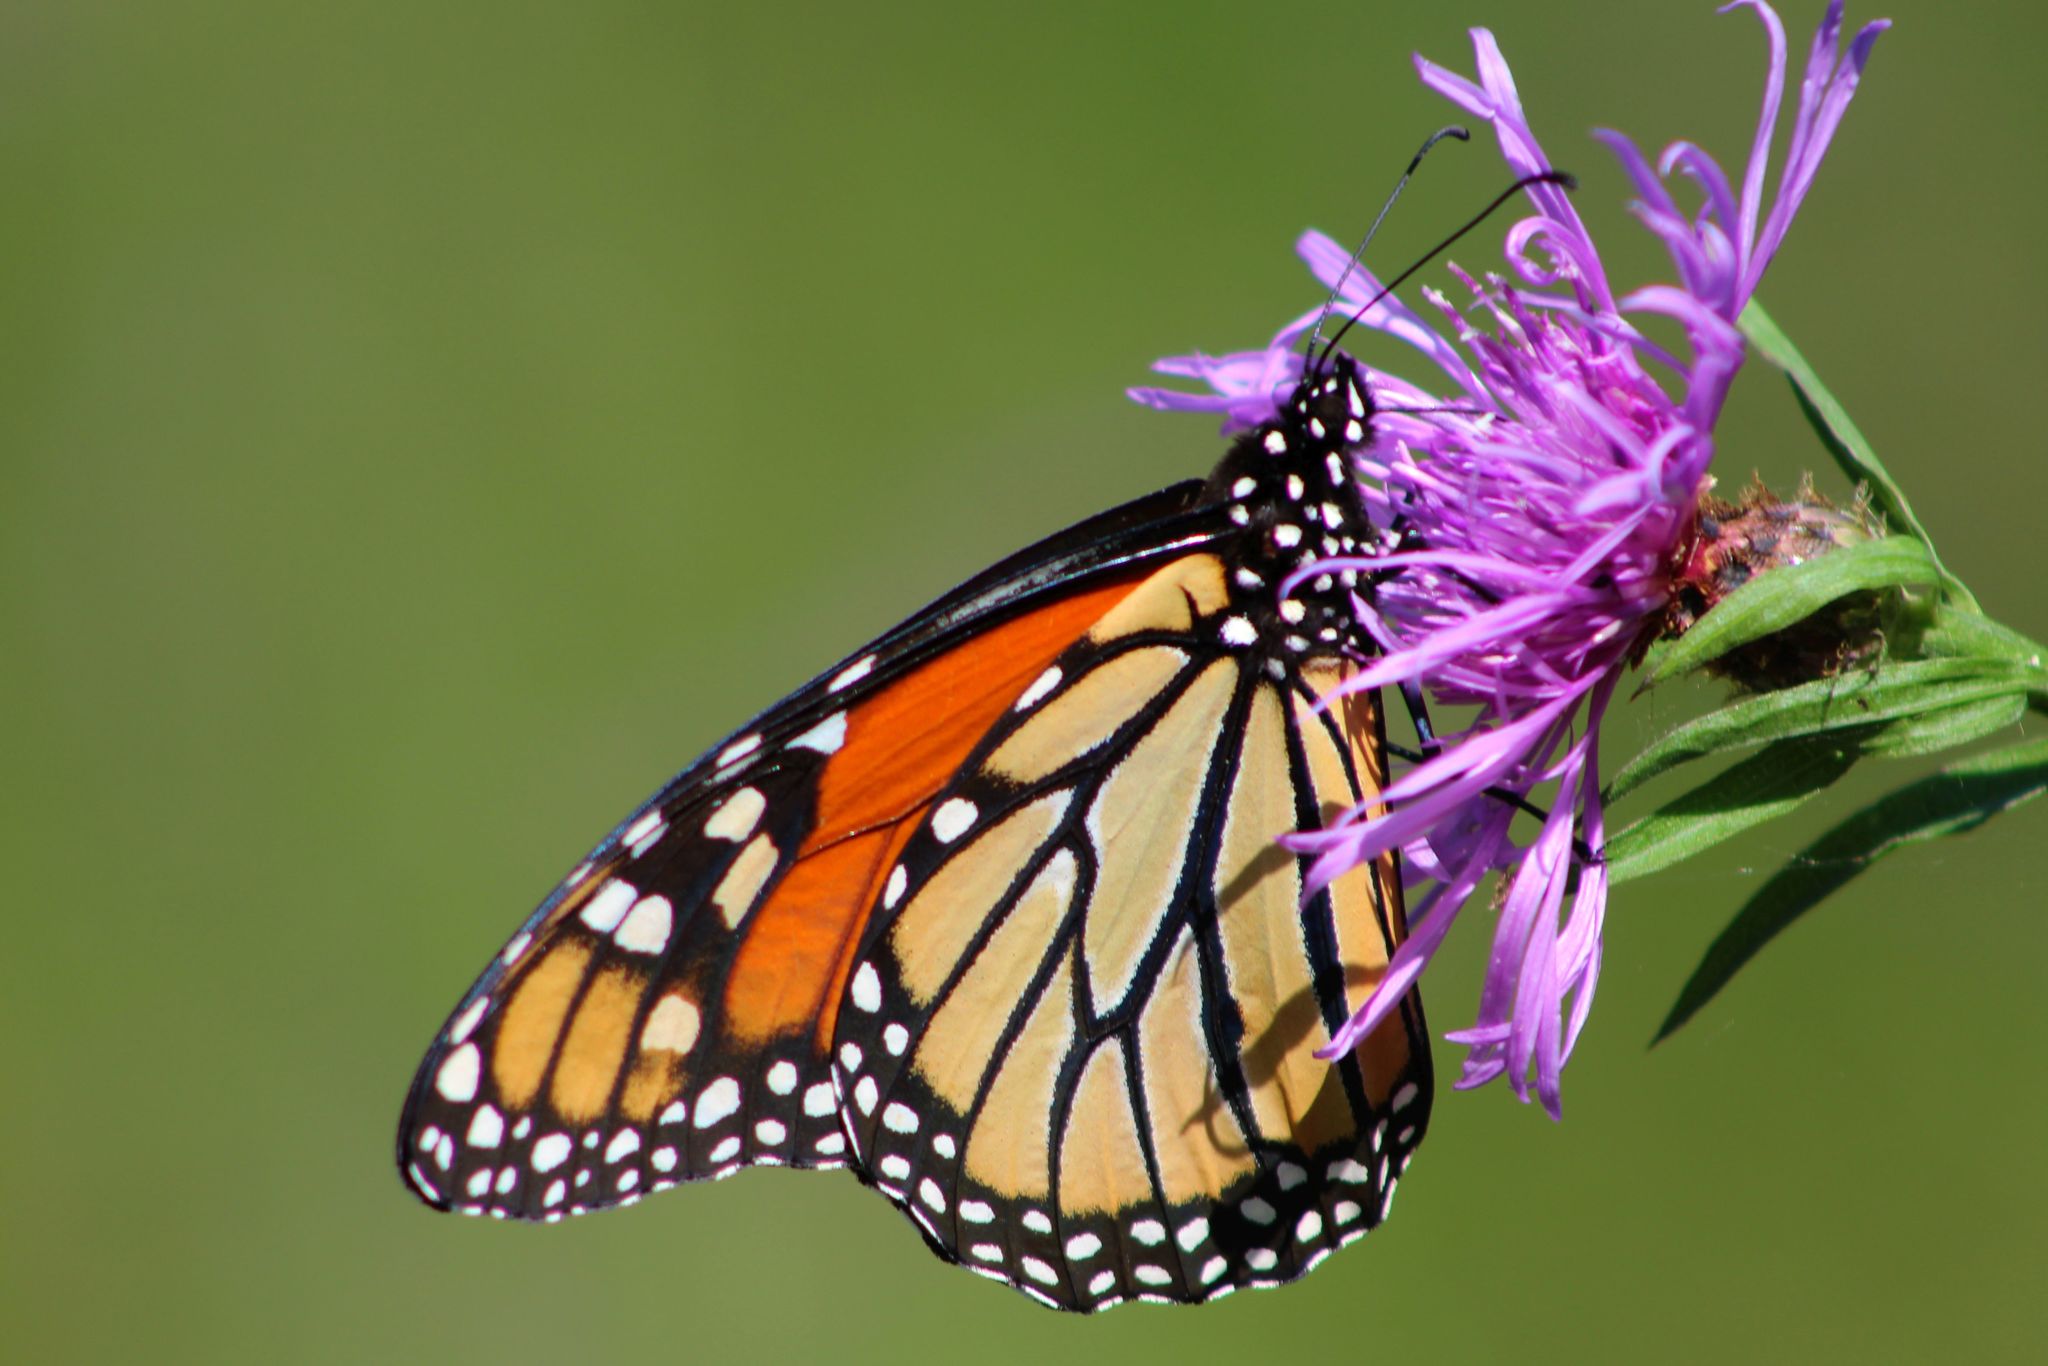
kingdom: Animalia
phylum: Arthropoda
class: Insecta
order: Lepidoptera
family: Nymphalidae
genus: Danaus
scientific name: Danaus plexippus
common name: Monarch
